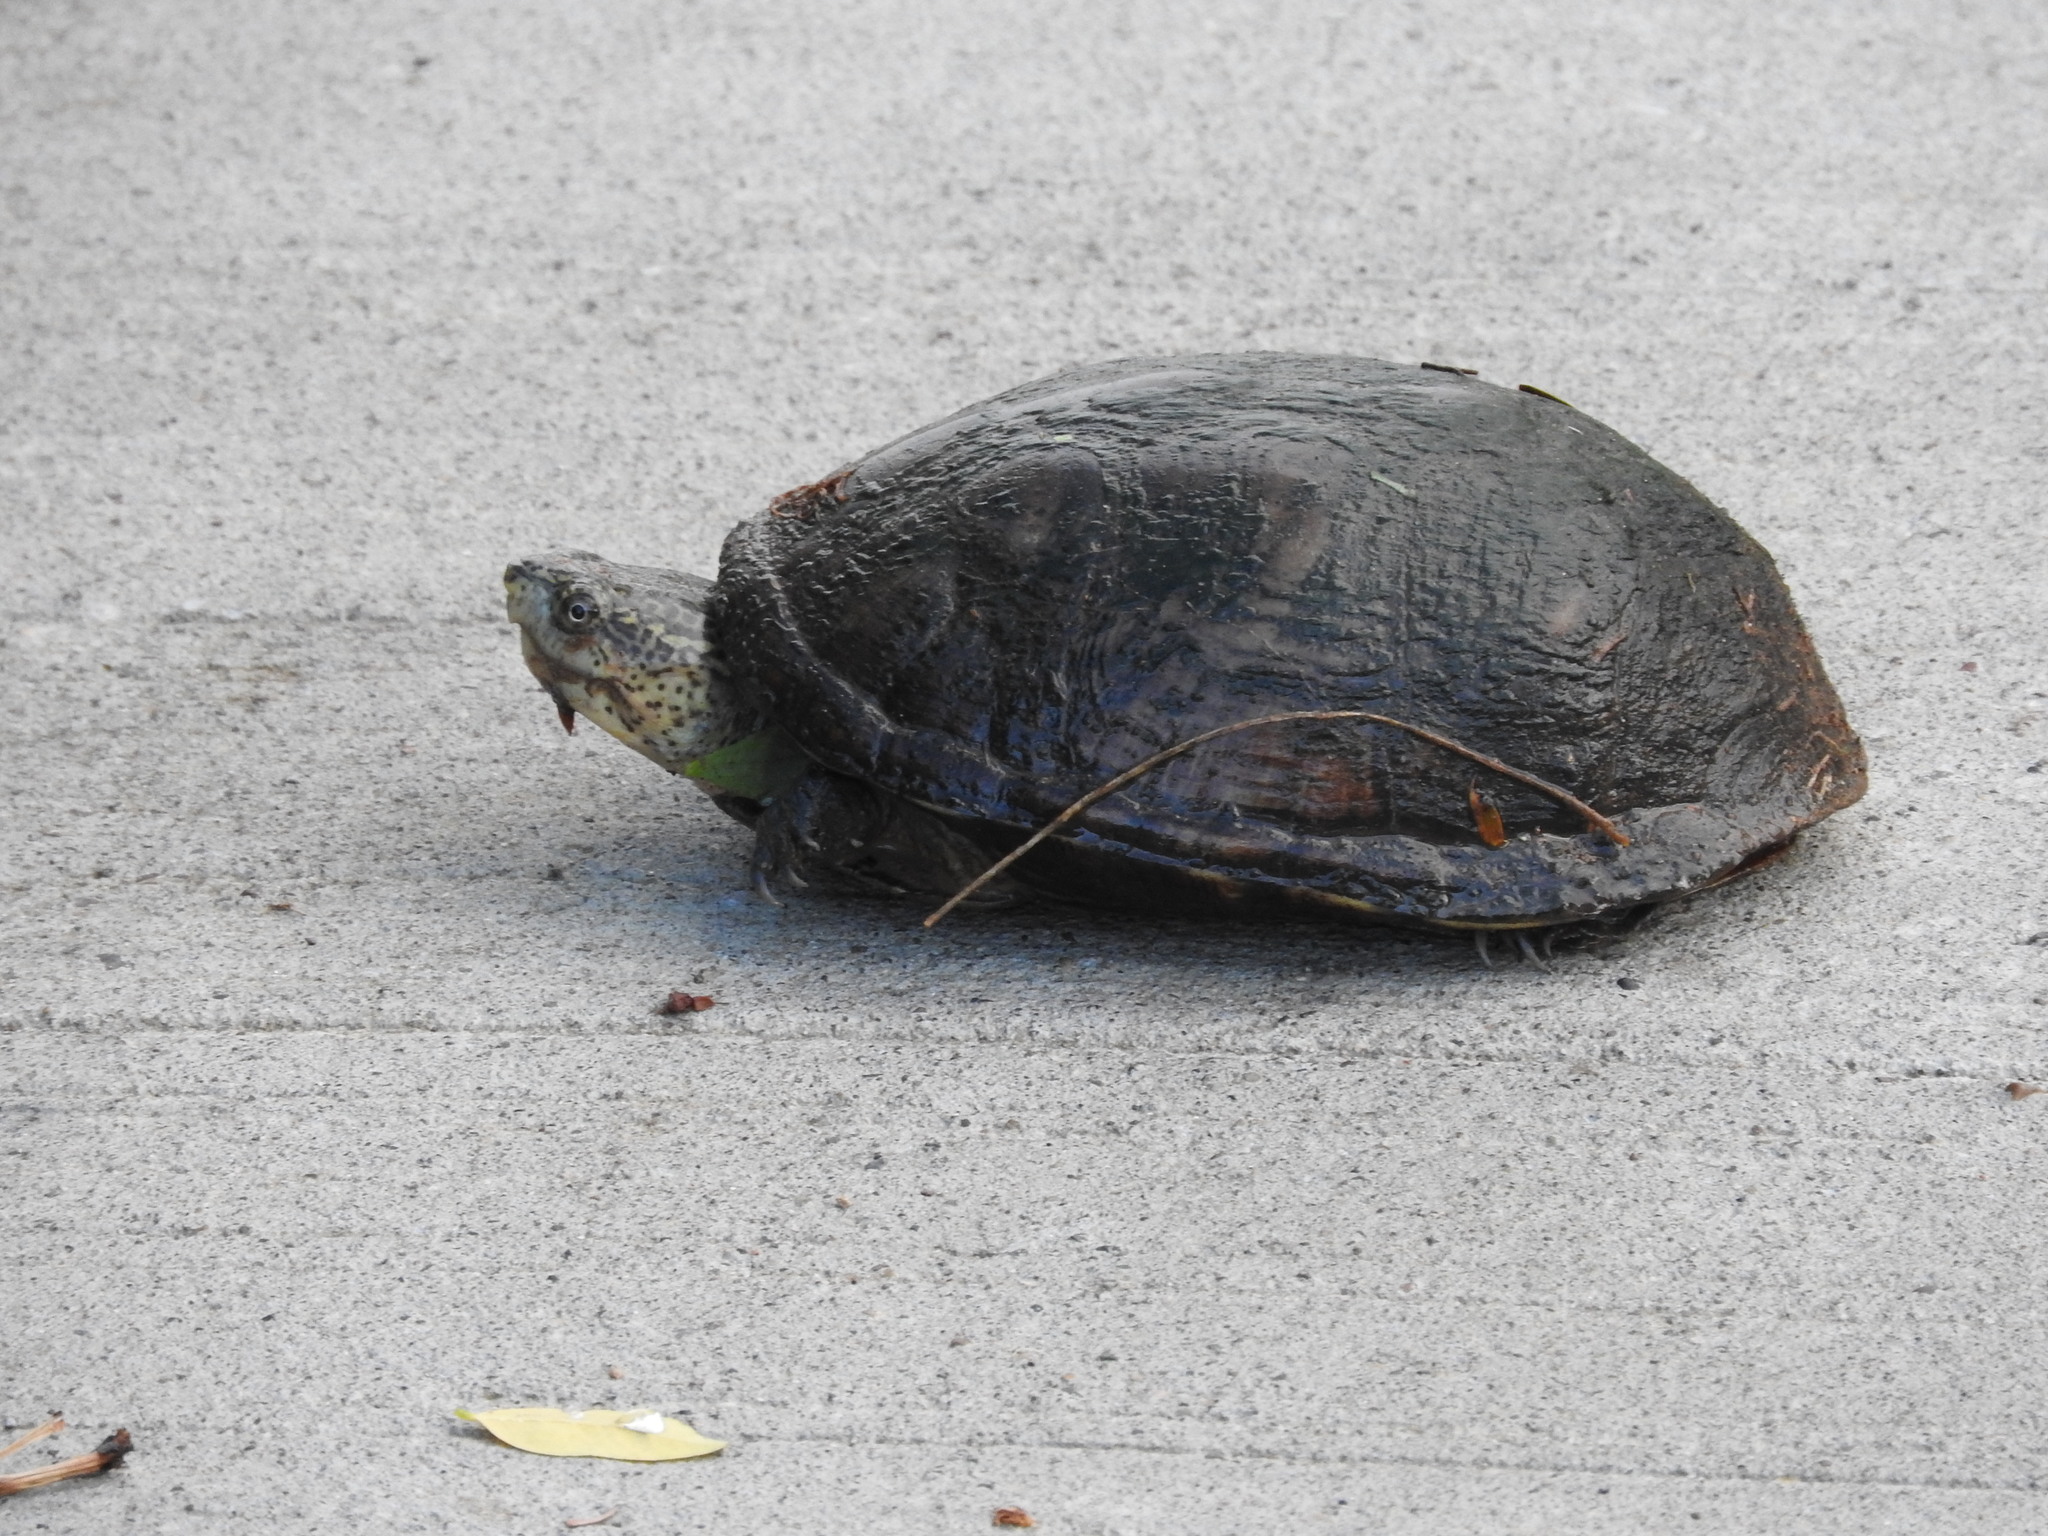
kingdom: Animalia
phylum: Chordata
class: Testudines
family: Kinosternidae
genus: Kinosternon
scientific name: Kinosternon integrum
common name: Mexican mud turtle
